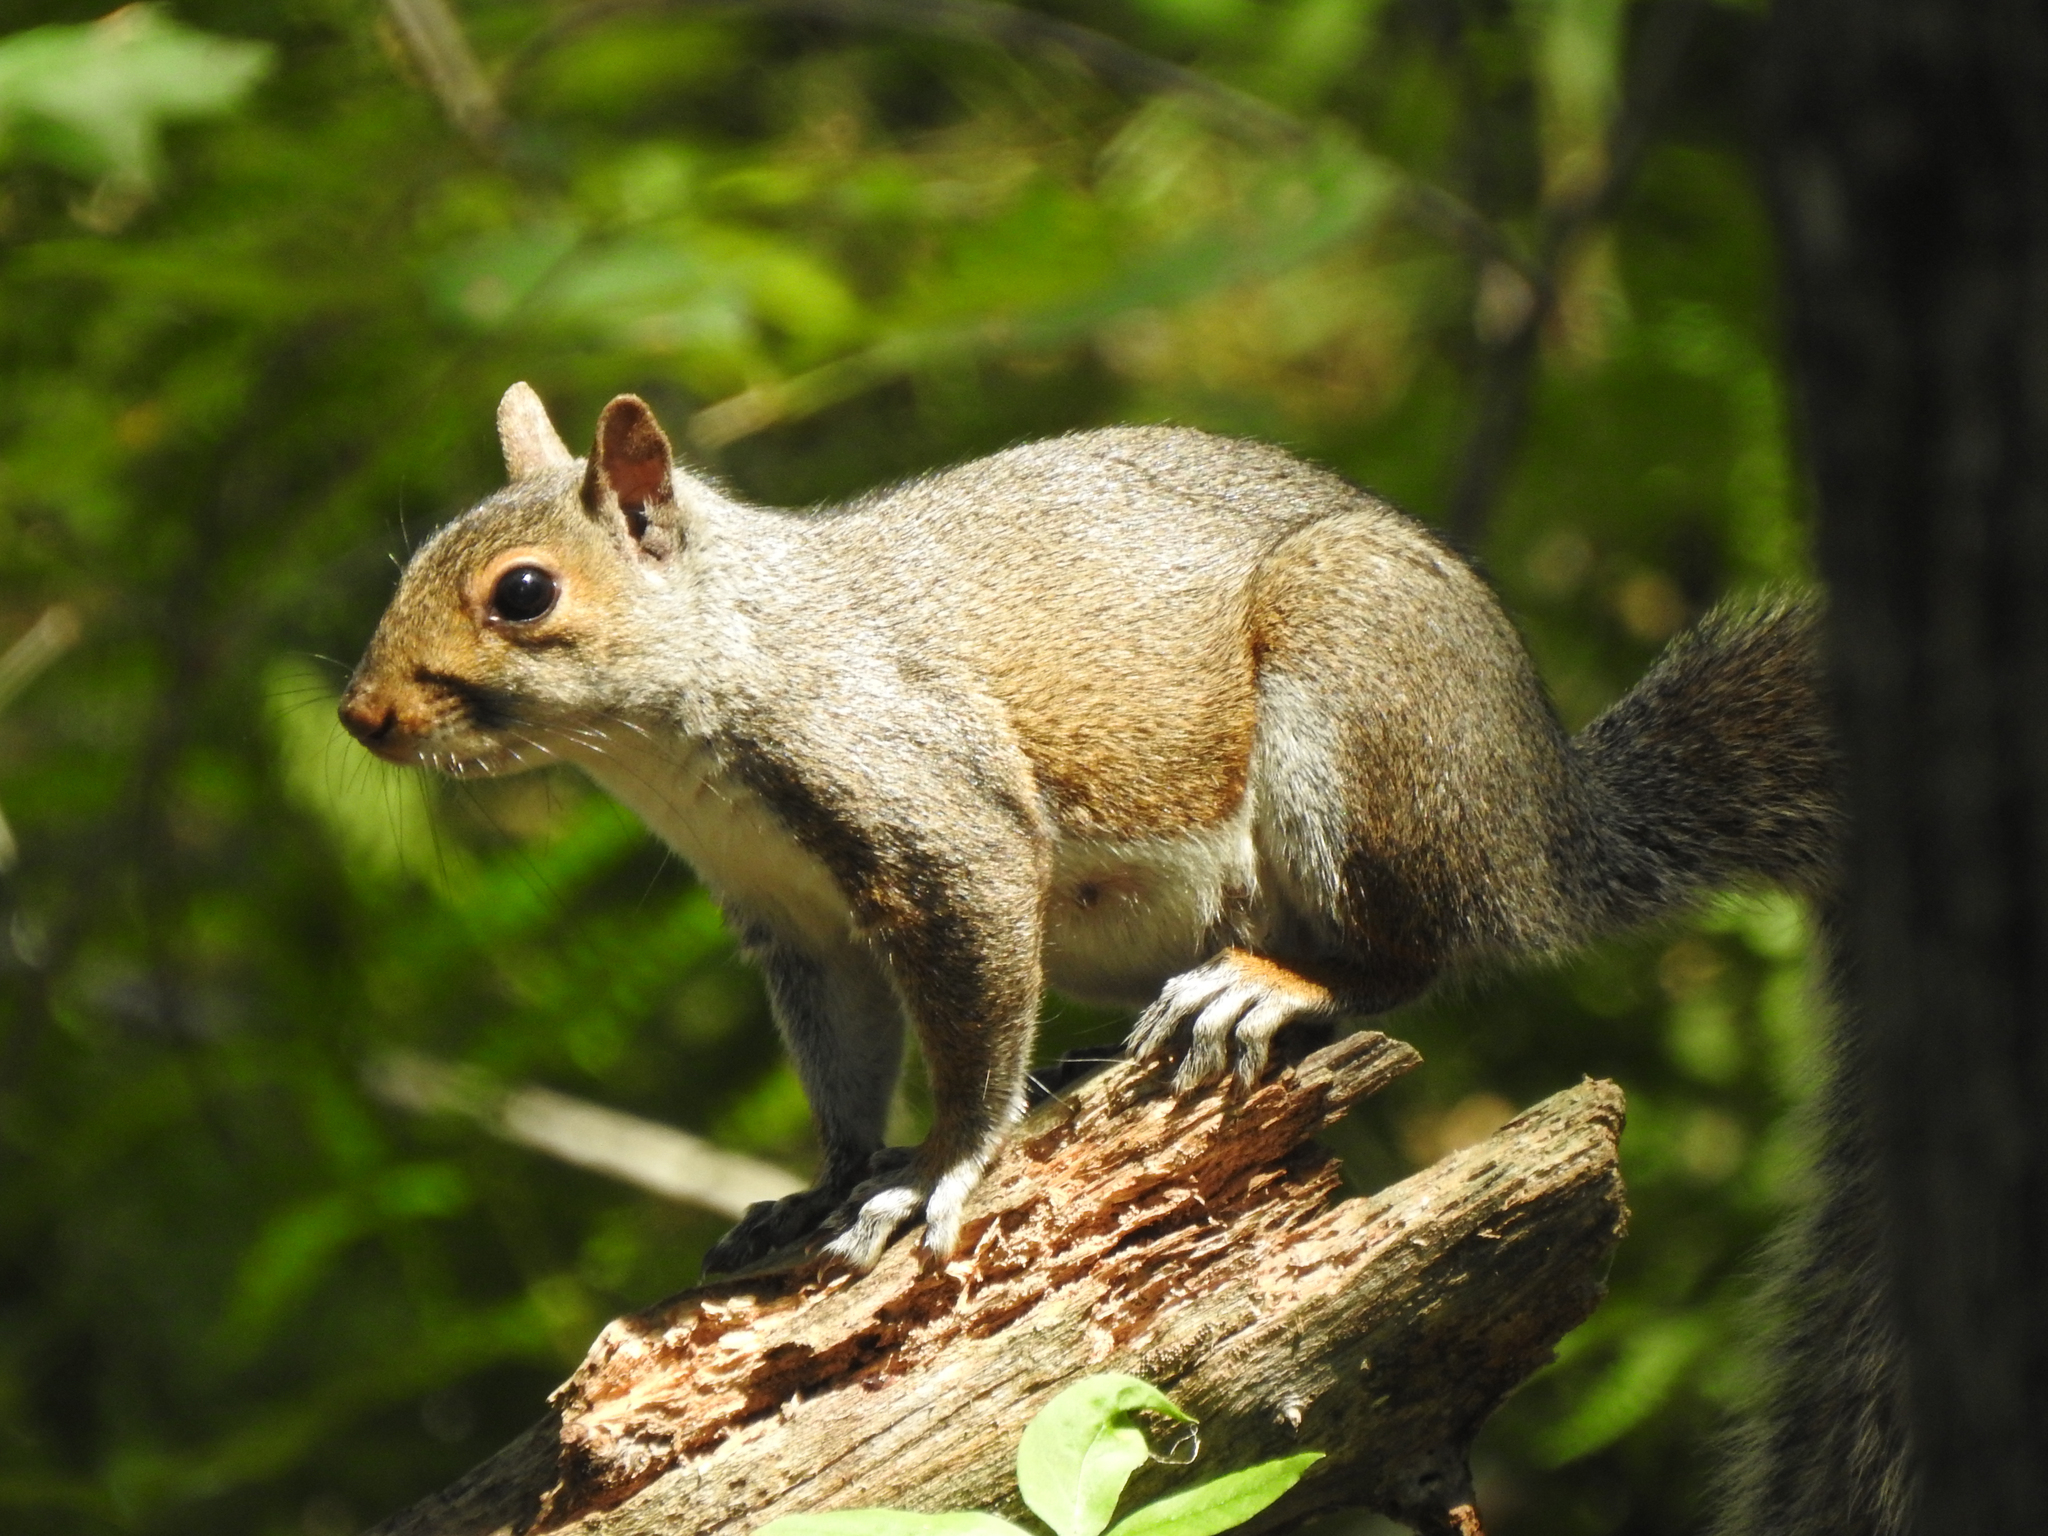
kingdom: Animalia
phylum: Chordata
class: Mammalia
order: Rodentia
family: Sciuridae
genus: Sciurus
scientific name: Sciurus carolinensis
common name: Eastern gray squirrel
